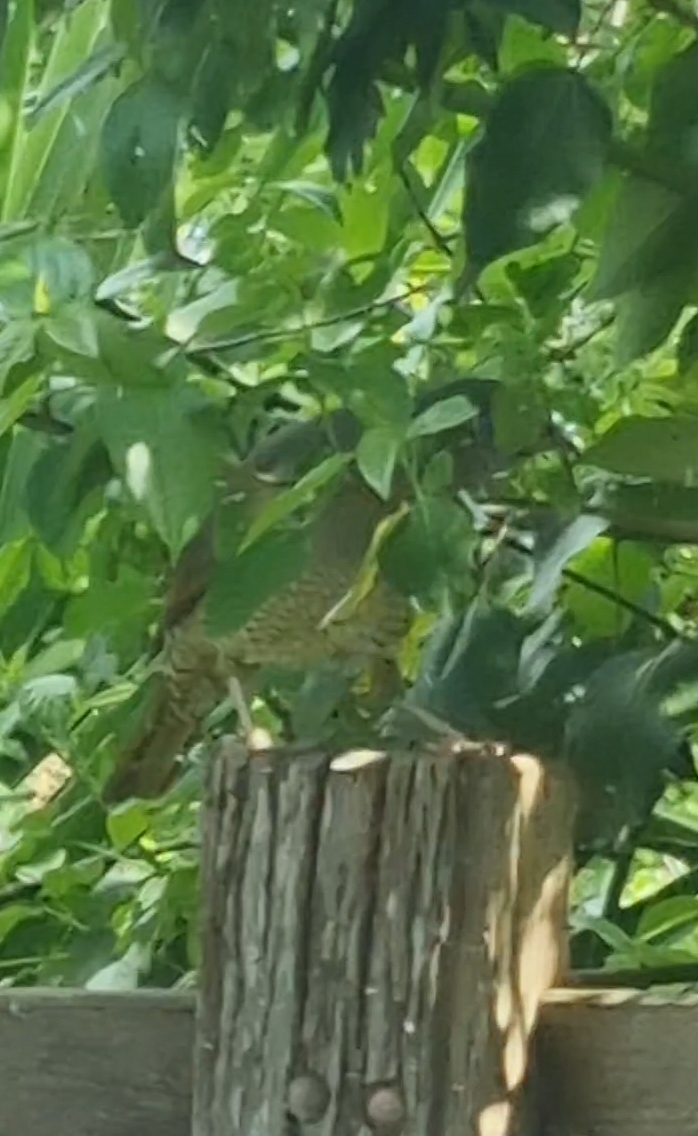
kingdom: Animalia
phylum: Chordata
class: Aves
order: Passeriformes
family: Ptilonorhynchidae
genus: Ptilonorhynchus
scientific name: Ptilonorhynchus violaceus
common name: Satin bowerbird
